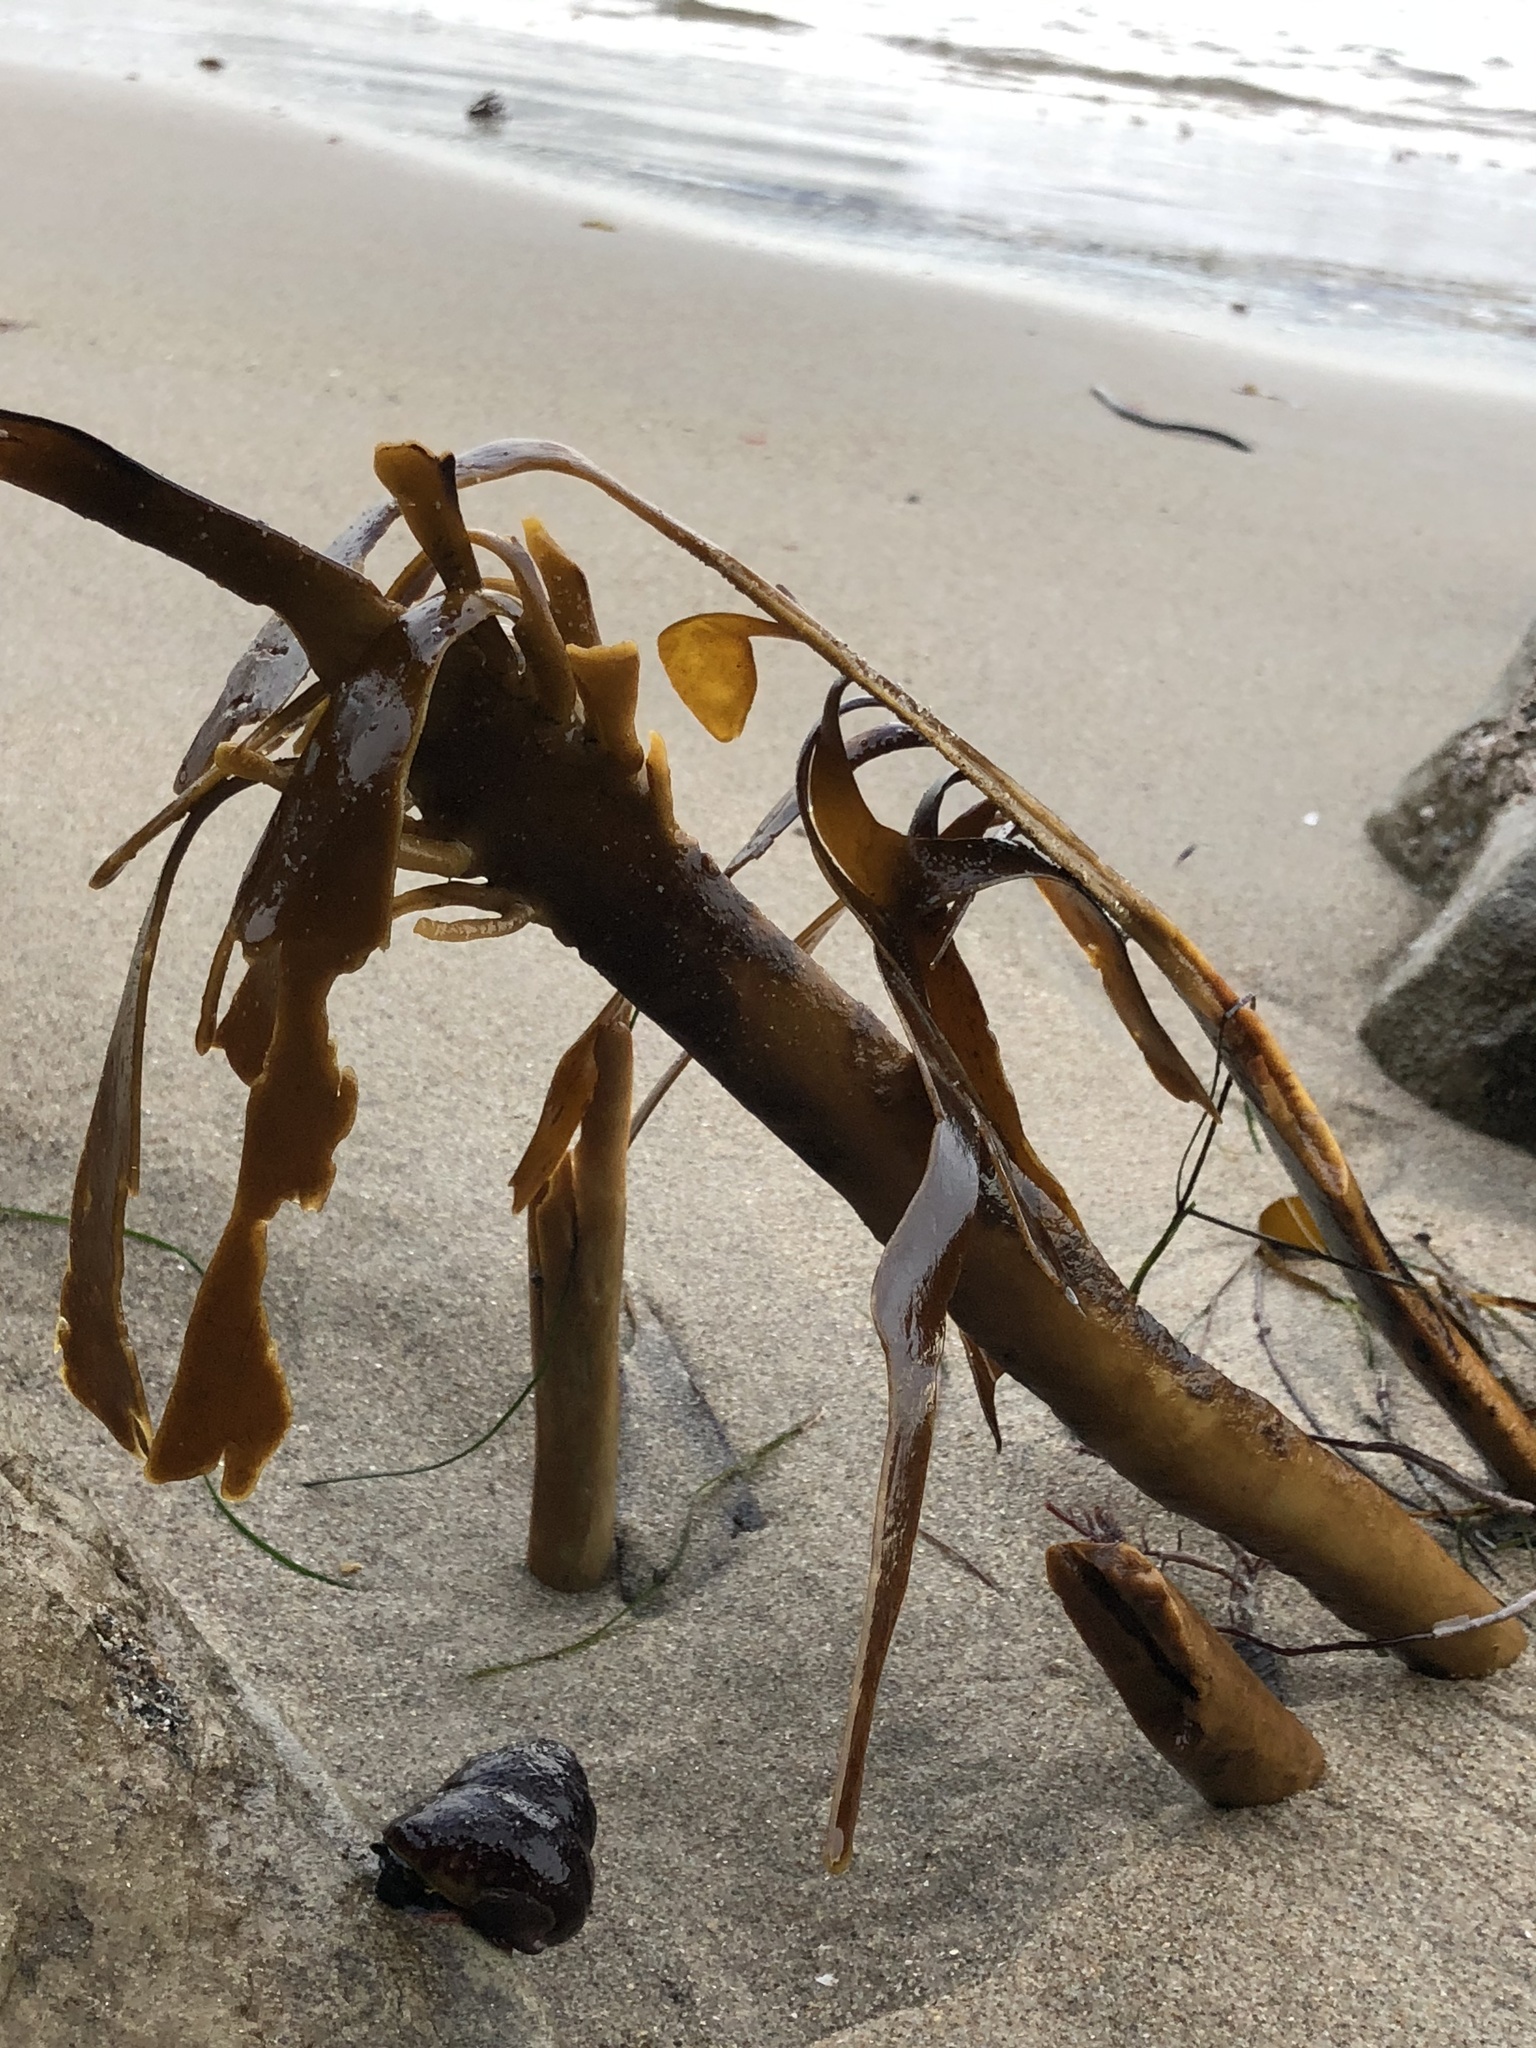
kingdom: Chromista
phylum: Ochrophyta
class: Phaeophyceae
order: Laminariales
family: Alariaceae
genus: Pterygophora
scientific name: Pterygophora californica
